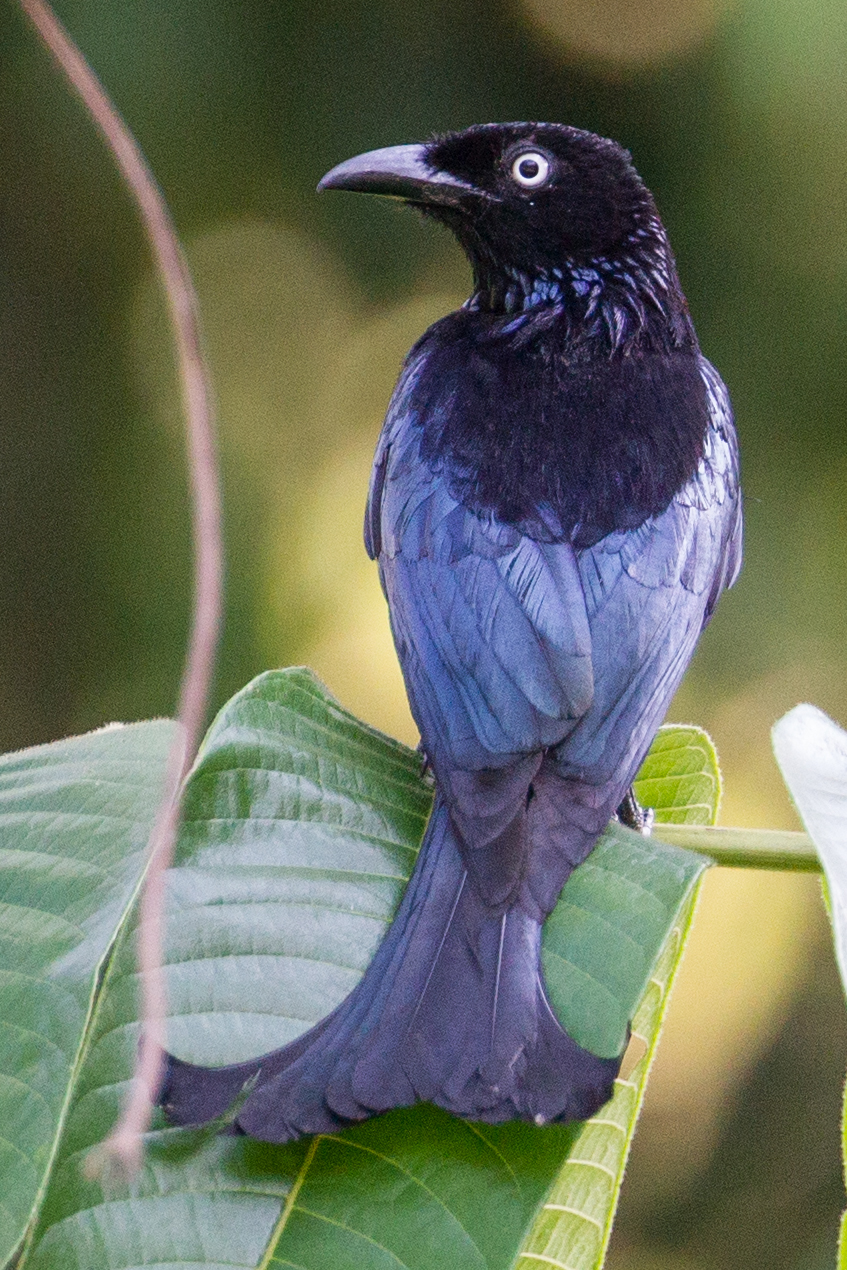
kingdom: Animalia
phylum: Chordata
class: Aves
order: Passeriformes
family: Dicruridae
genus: Dicrurus
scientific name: Dicrurus hottentottus
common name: Hair-crested drongo
